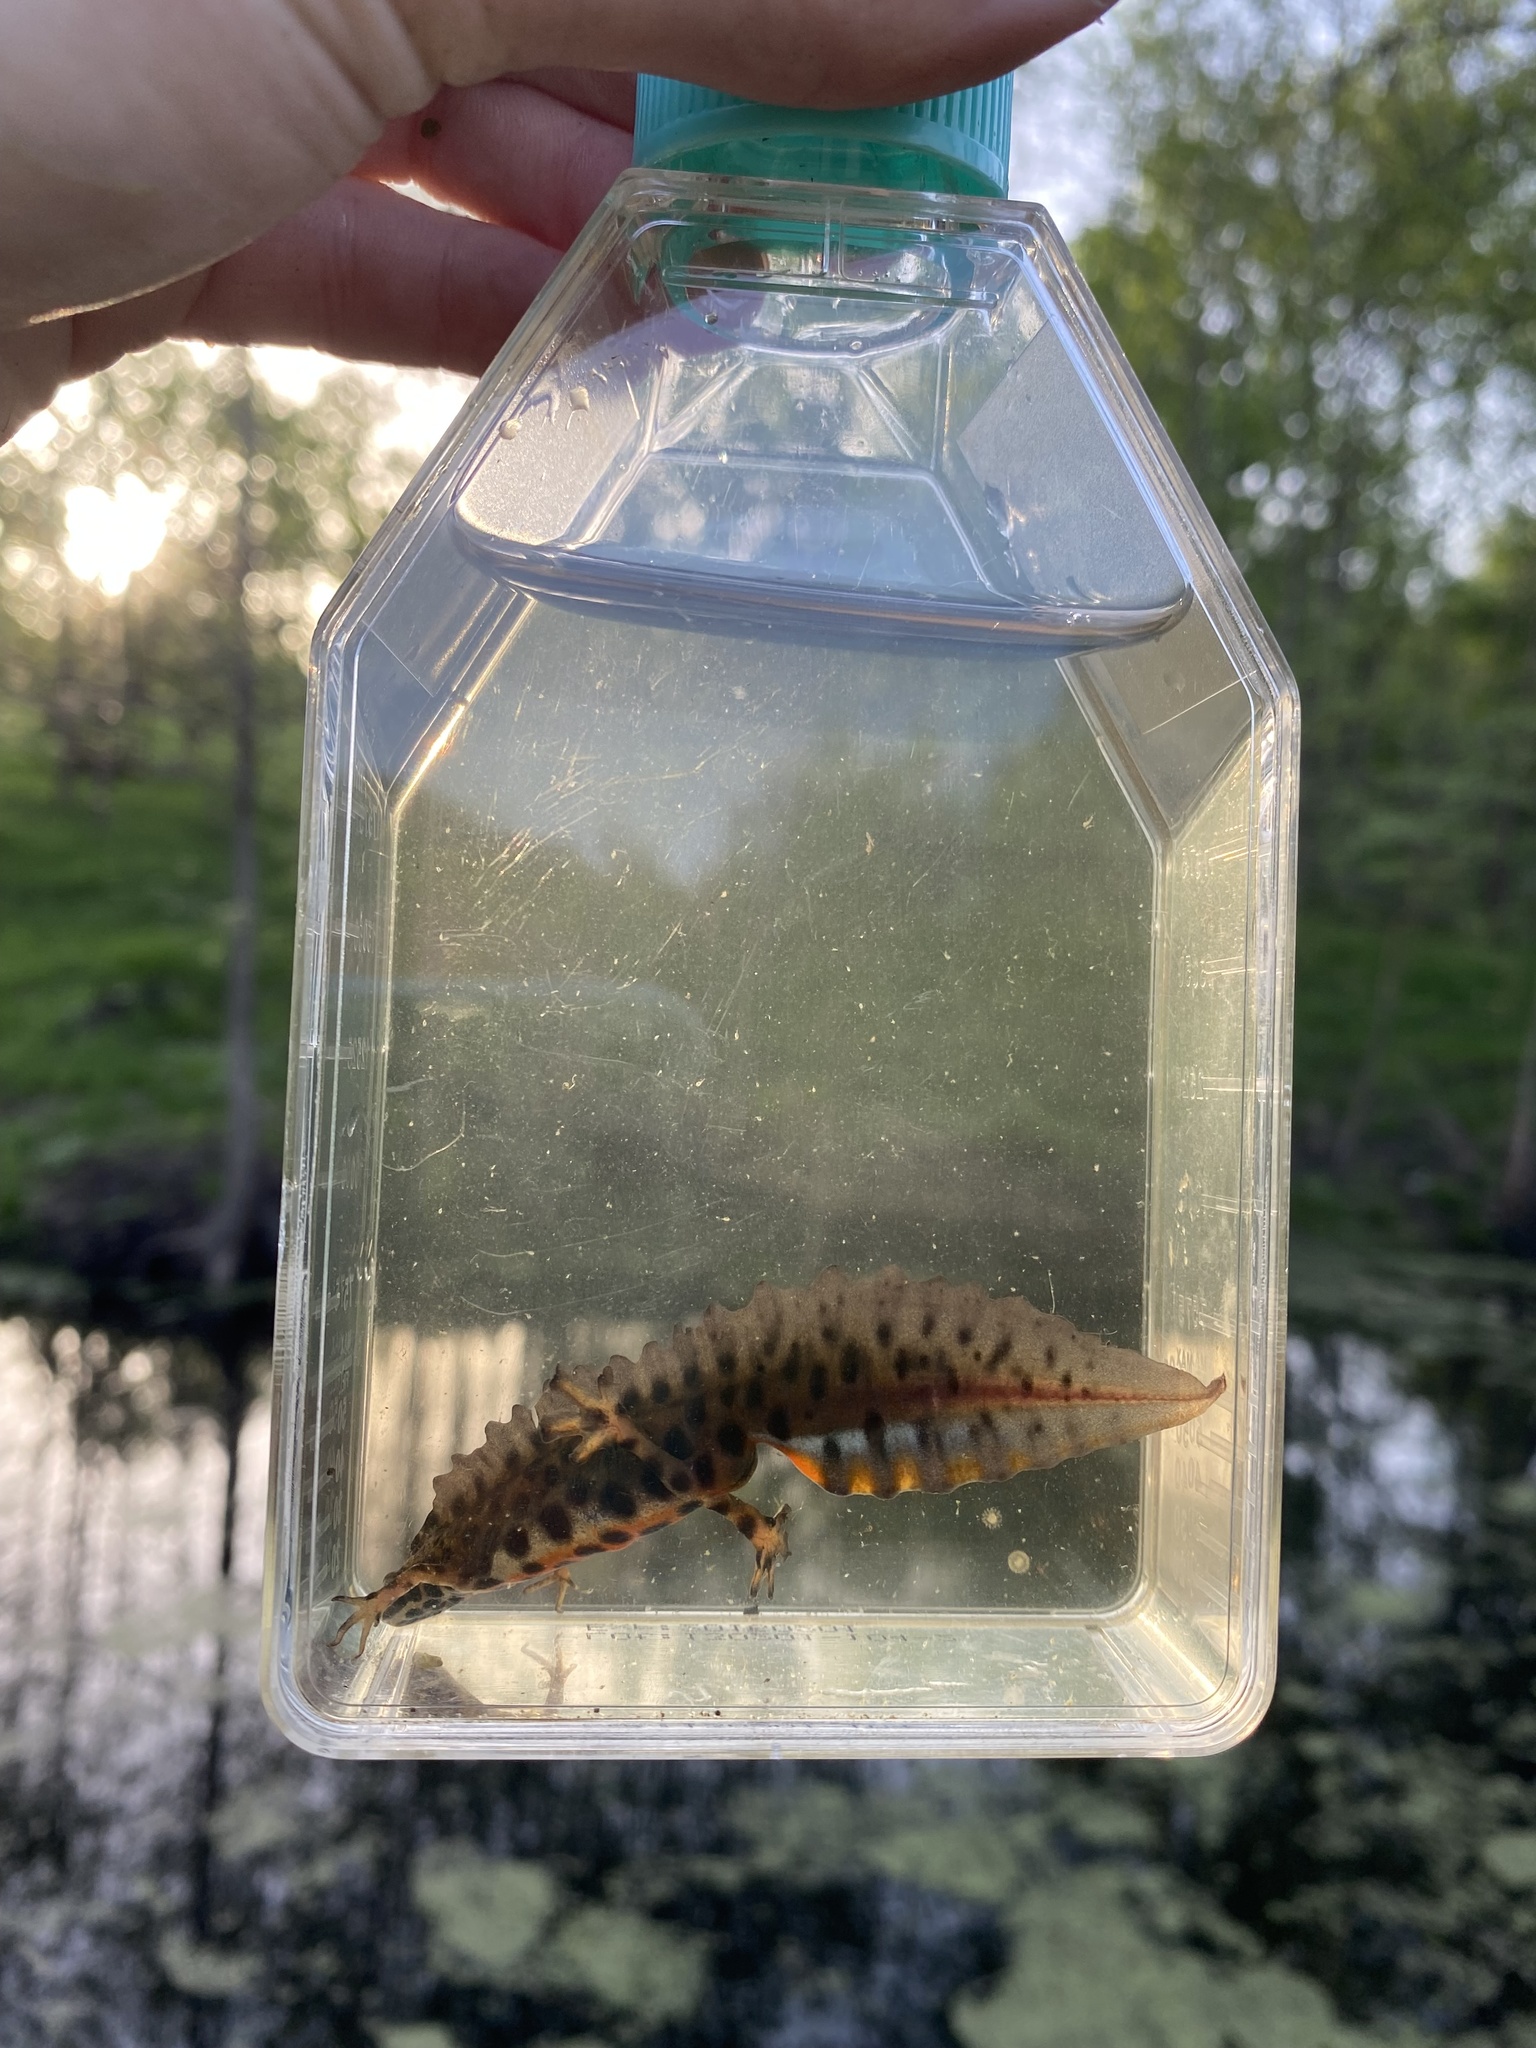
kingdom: Animalia
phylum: Chordata
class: Amphibia
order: Caudata
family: Salamandridae
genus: Lissotriton
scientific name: Lissotriton vulgaris
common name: Smooth newt
